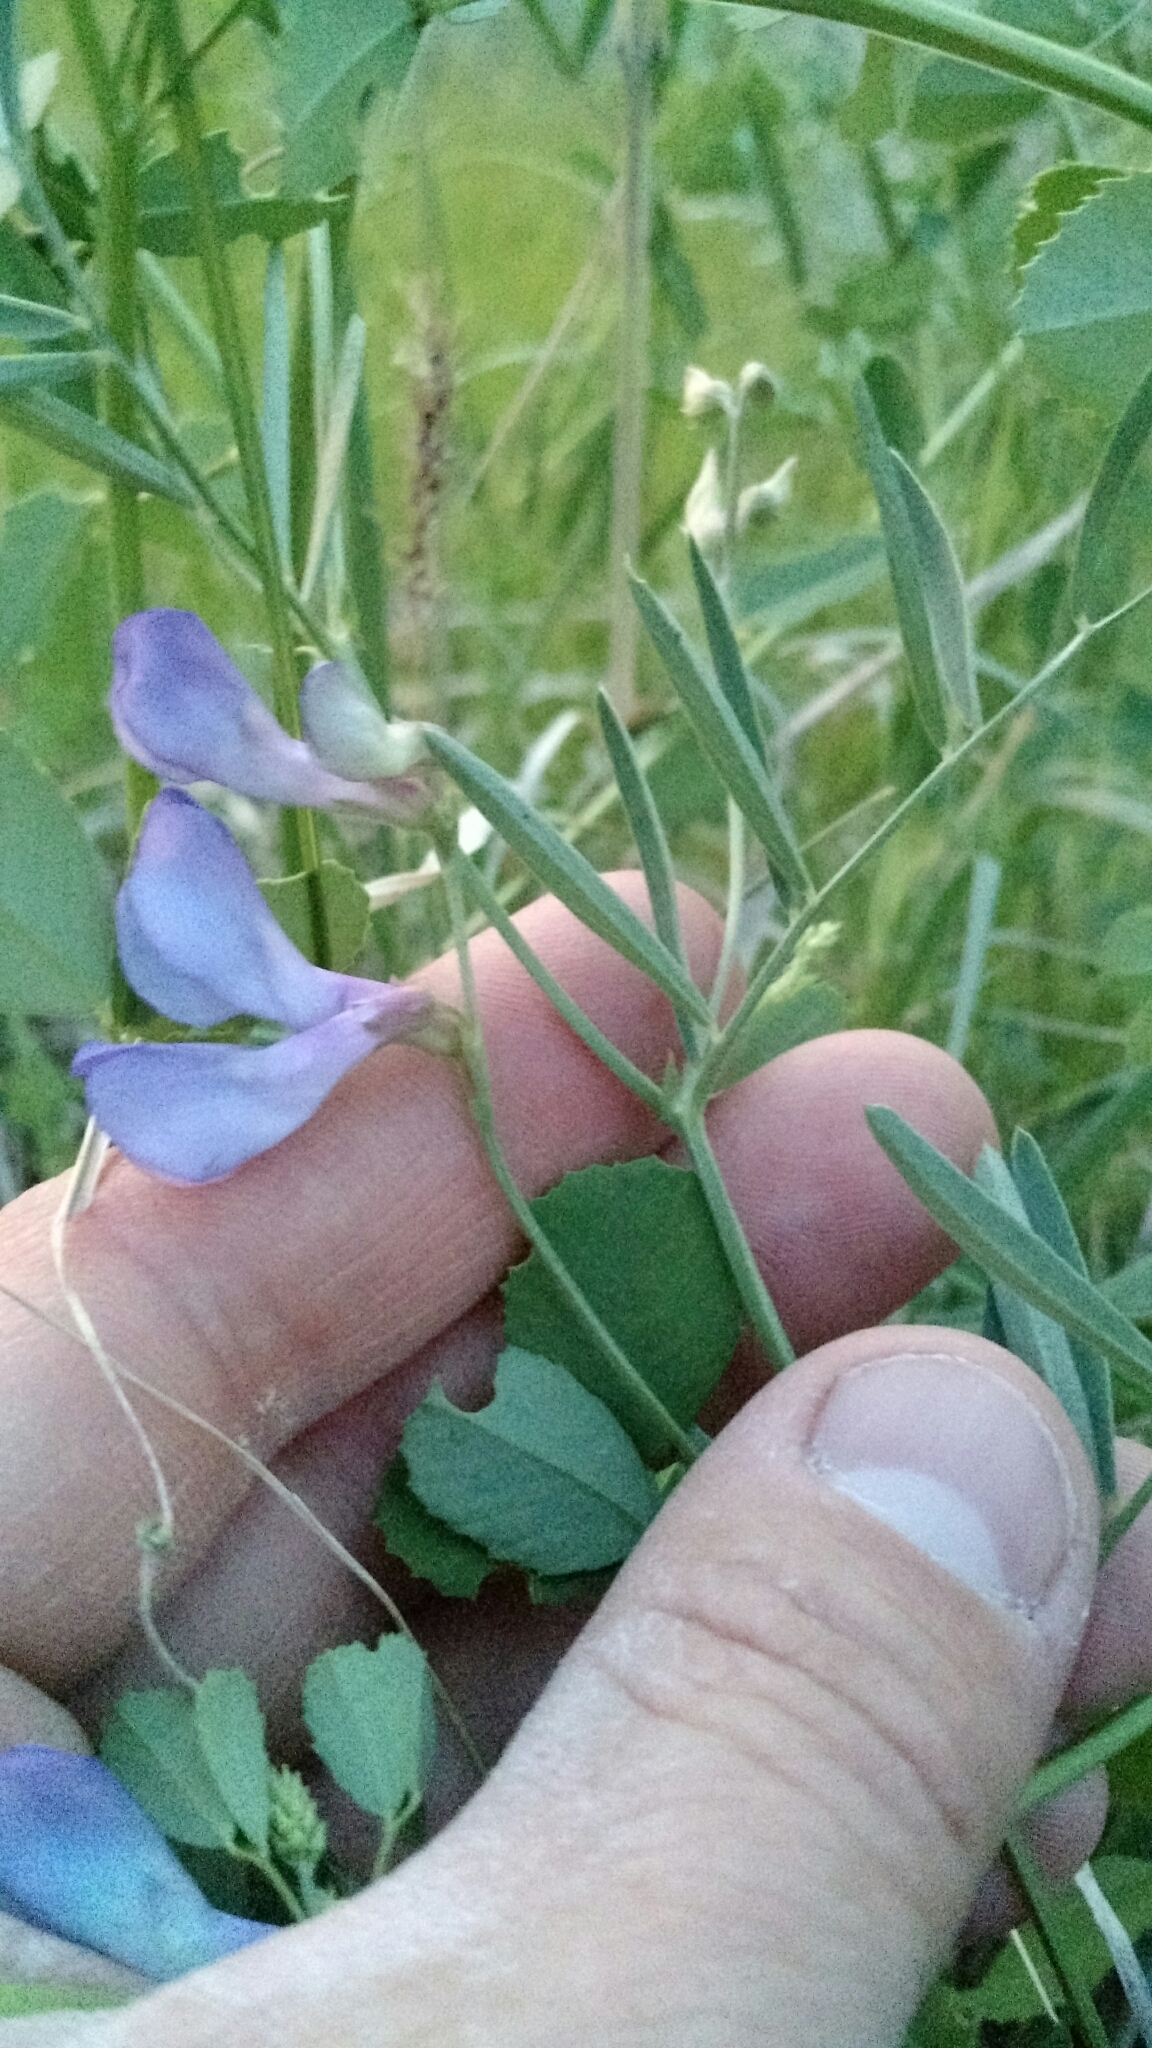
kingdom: Plantae
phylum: Tracheophyta
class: Magnoliopsida
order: Fabales
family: Fabaceae
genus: Vicia
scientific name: Vicia americana
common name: American vetch
